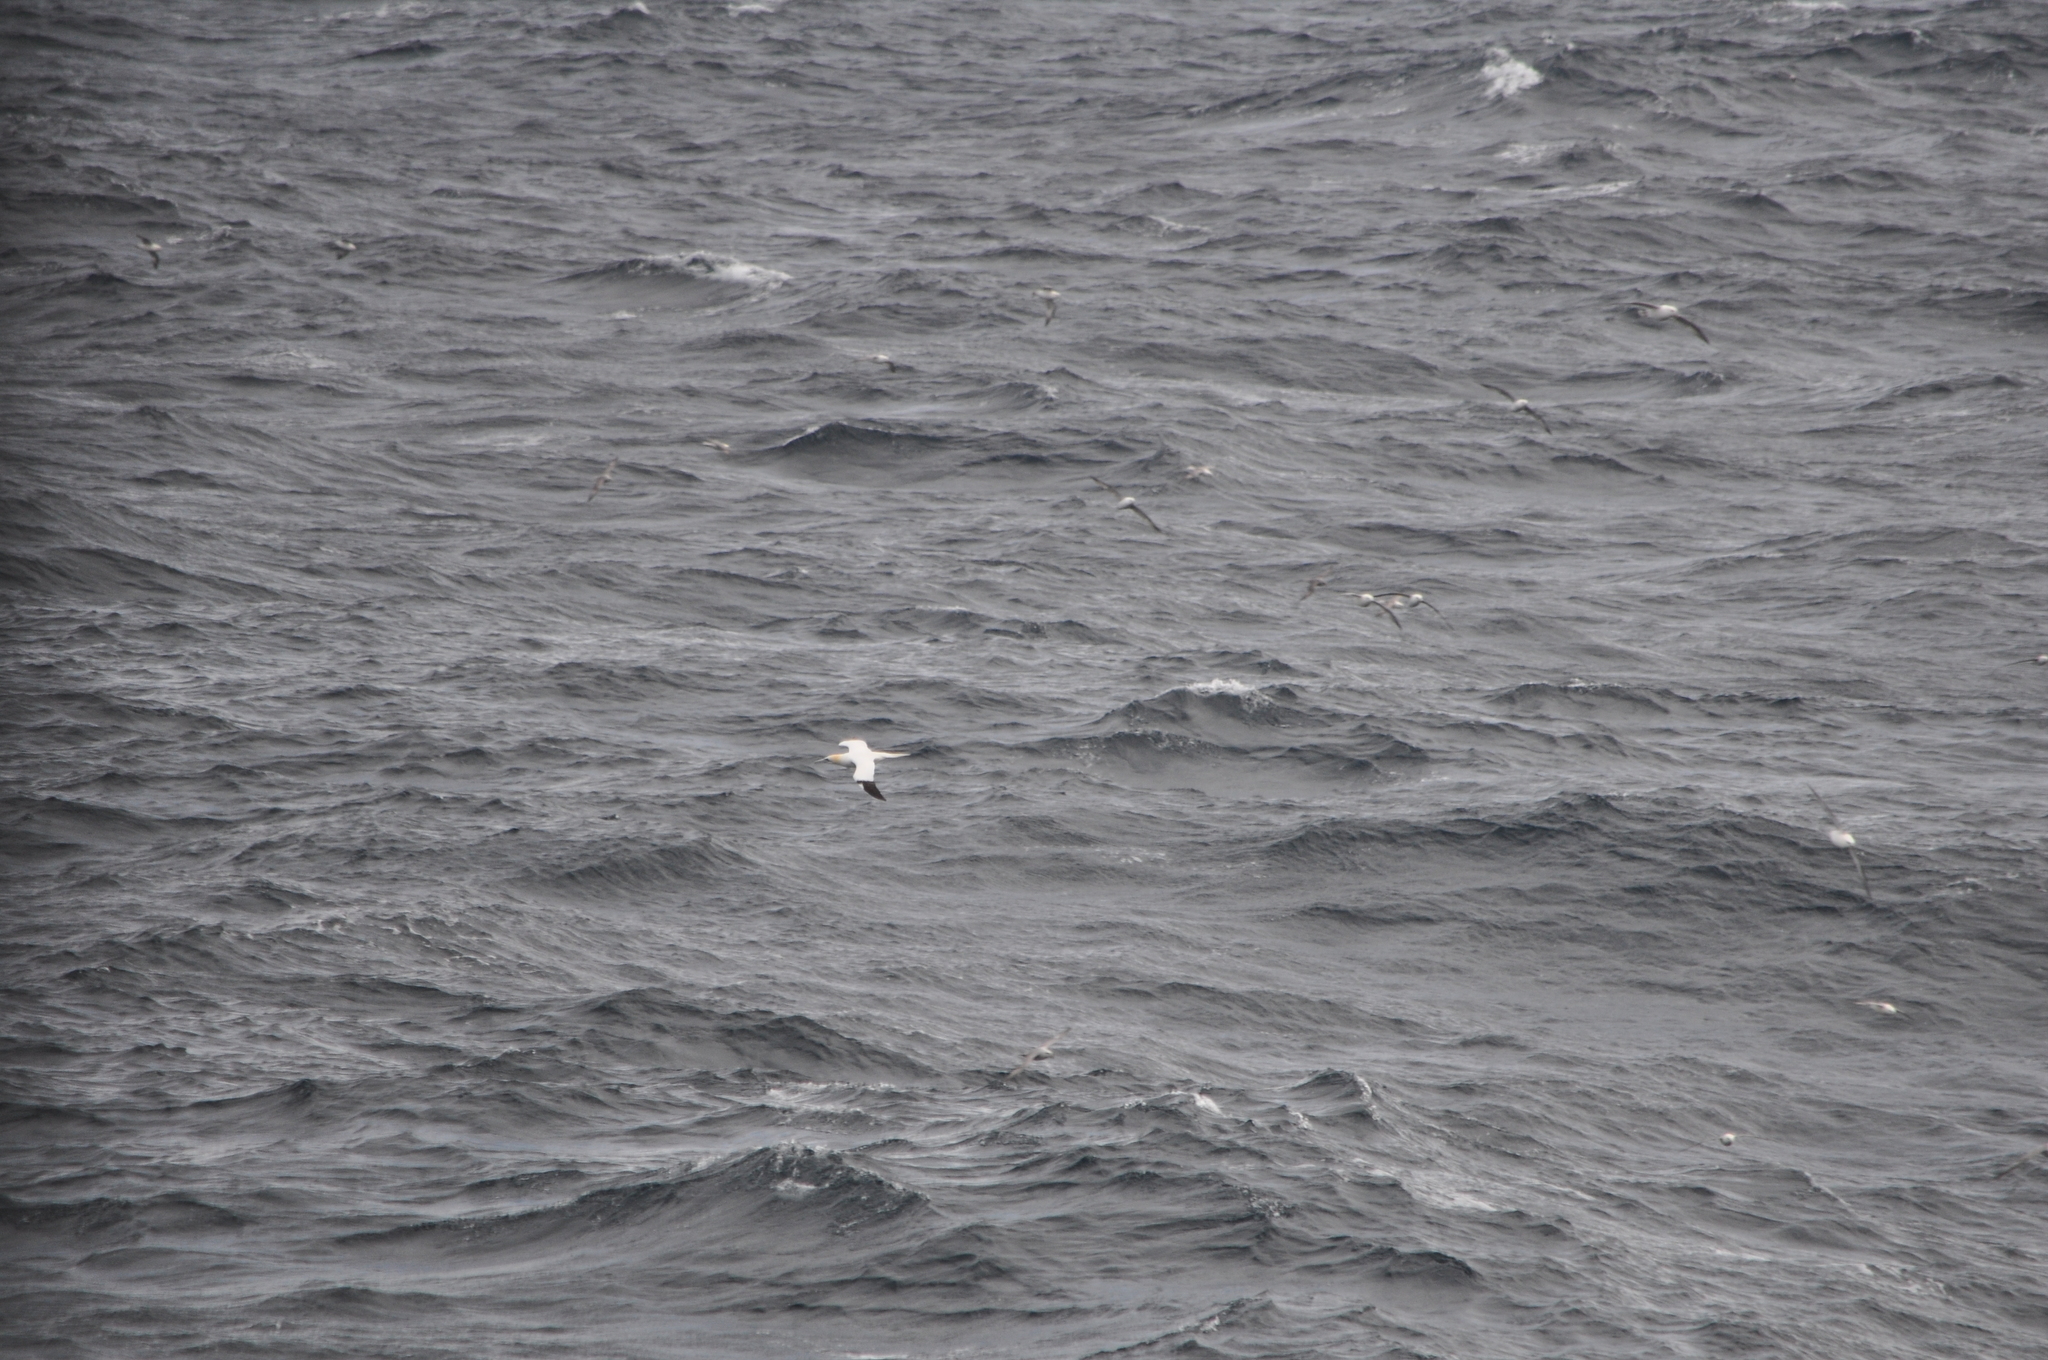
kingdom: Animalia
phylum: Chordata
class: Aves
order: Suliformes
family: Sulidae
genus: Morus
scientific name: Morus bassanus
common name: Northern gannet
